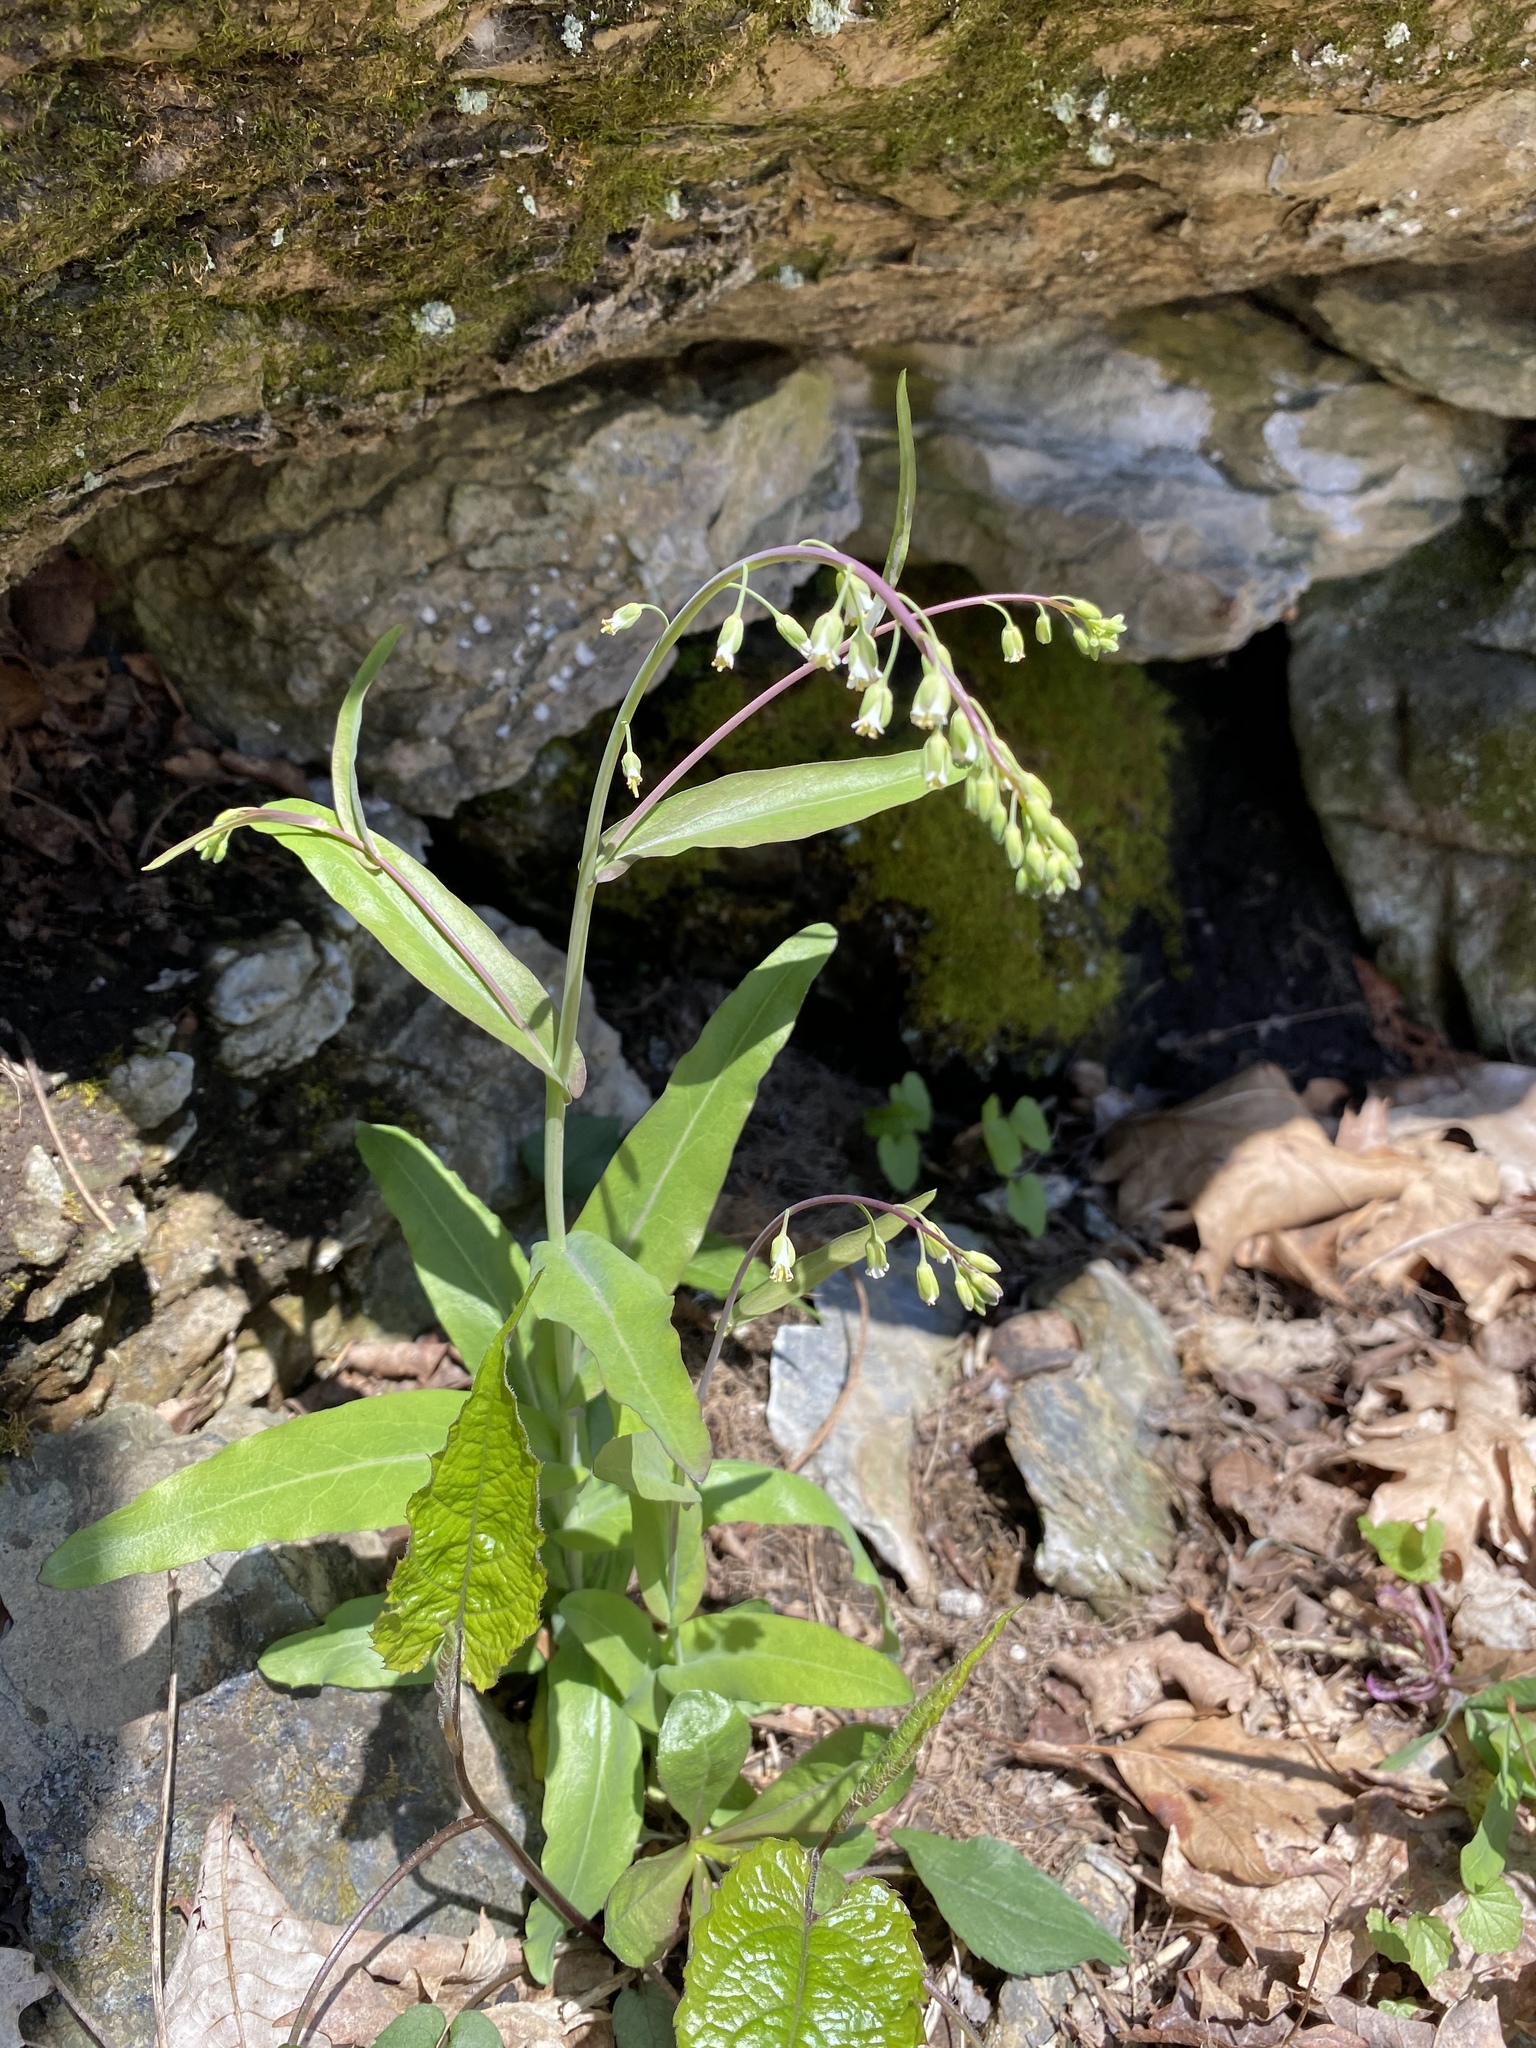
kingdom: Plantae
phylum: Tracheophyta
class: Magnoliopsida
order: Brassicales
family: Brassicaceae
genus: Borodinia
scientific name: Borodinia laevigata
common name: Smooth rockcress
